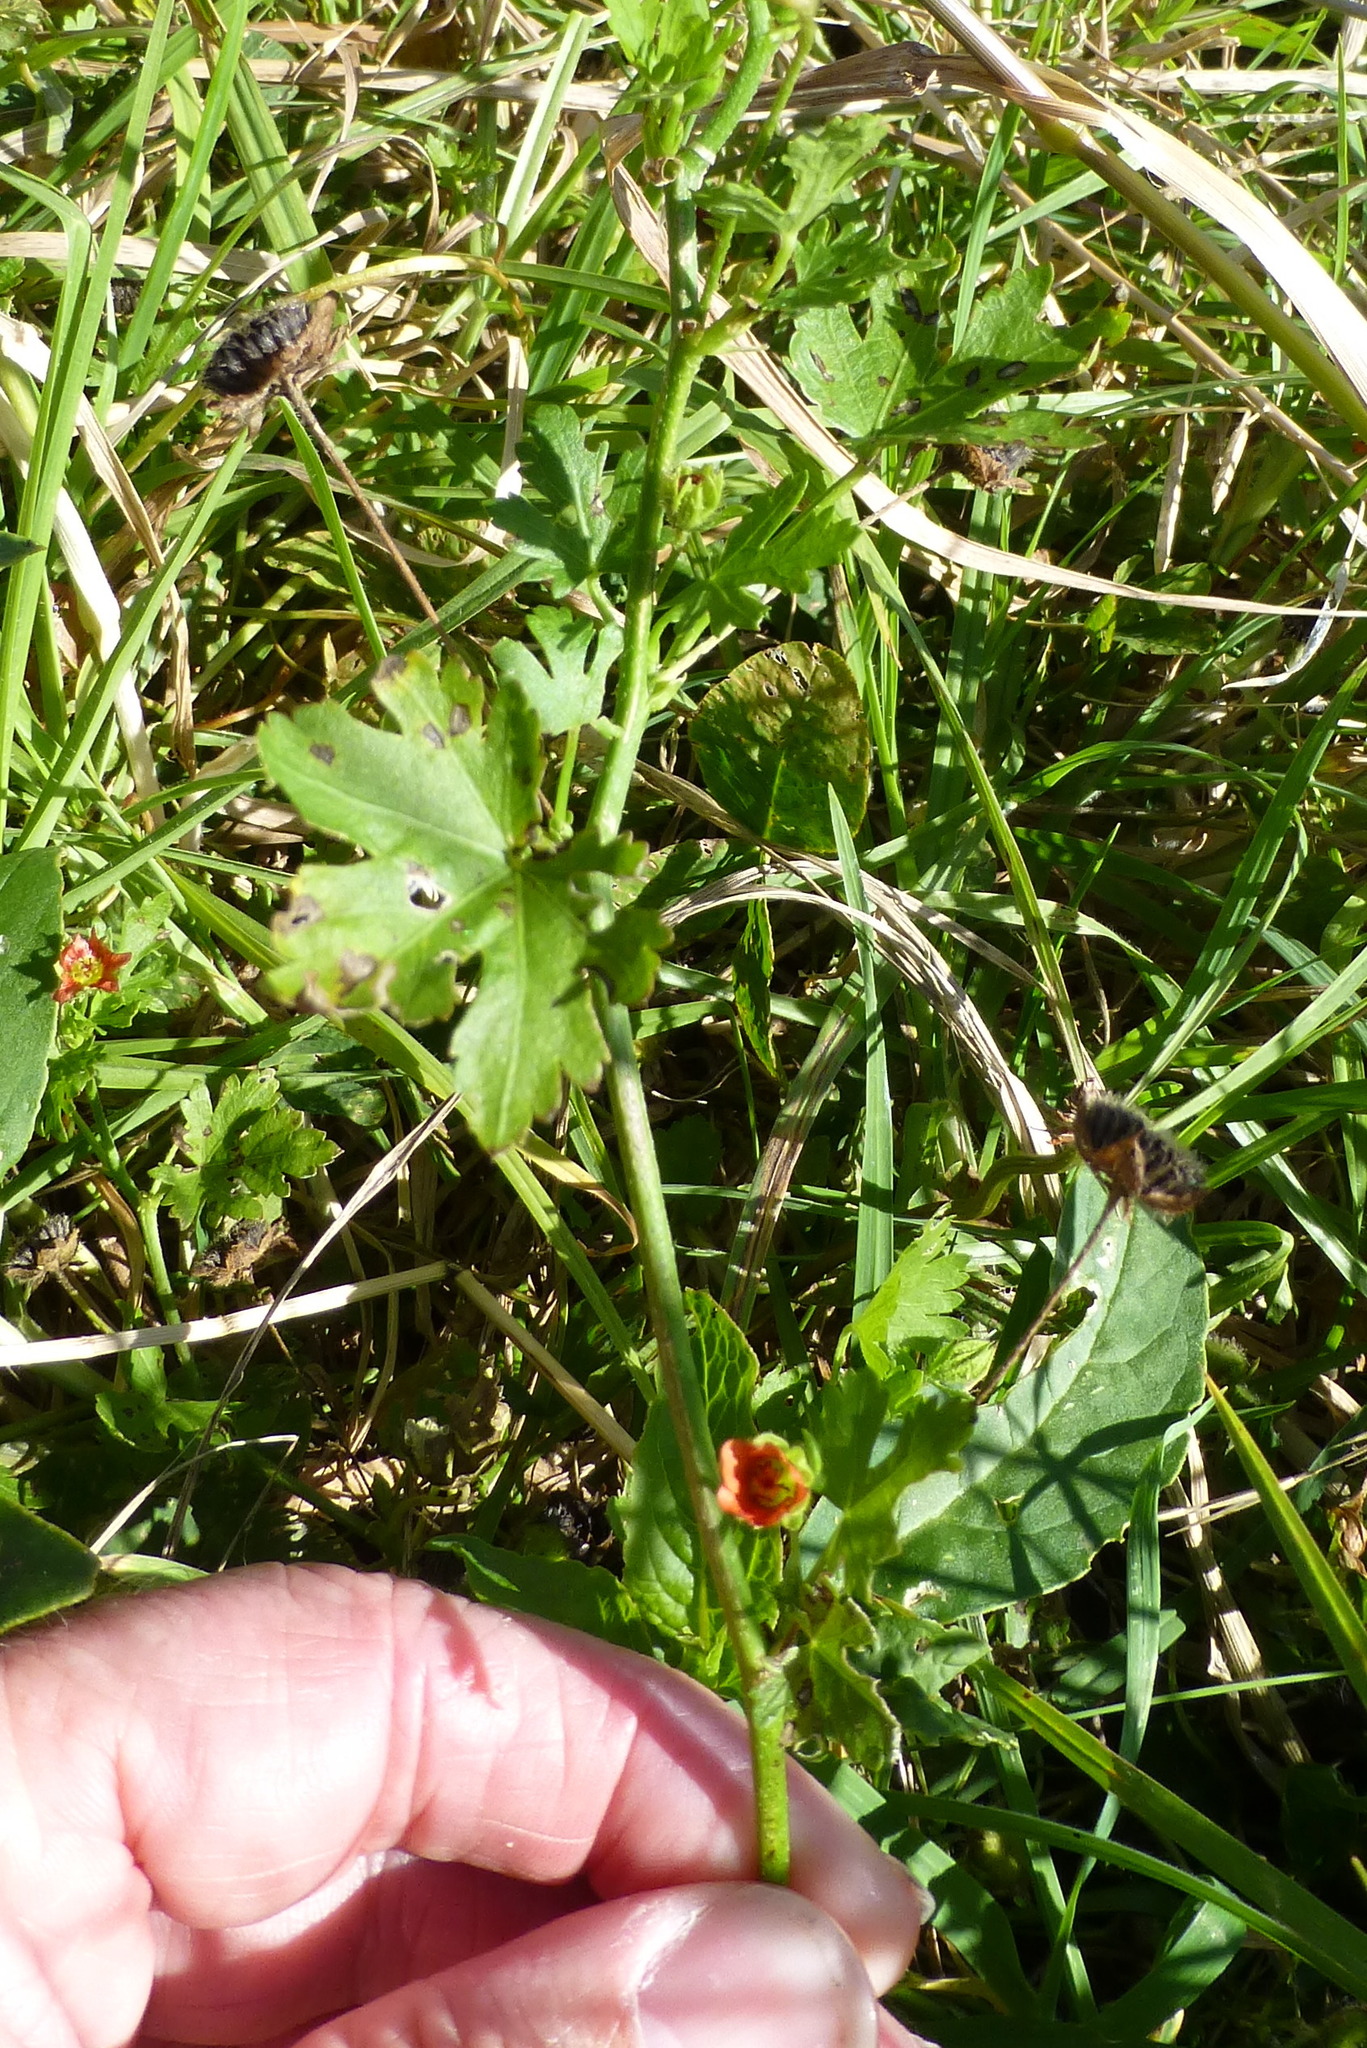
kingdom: Plantae
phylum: Tracheophyta
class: Magnoliopsida
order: Malvales
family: Malvaceae
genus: Modiola
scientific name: Modiola caroliniana
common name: Carolina bristlemallow
